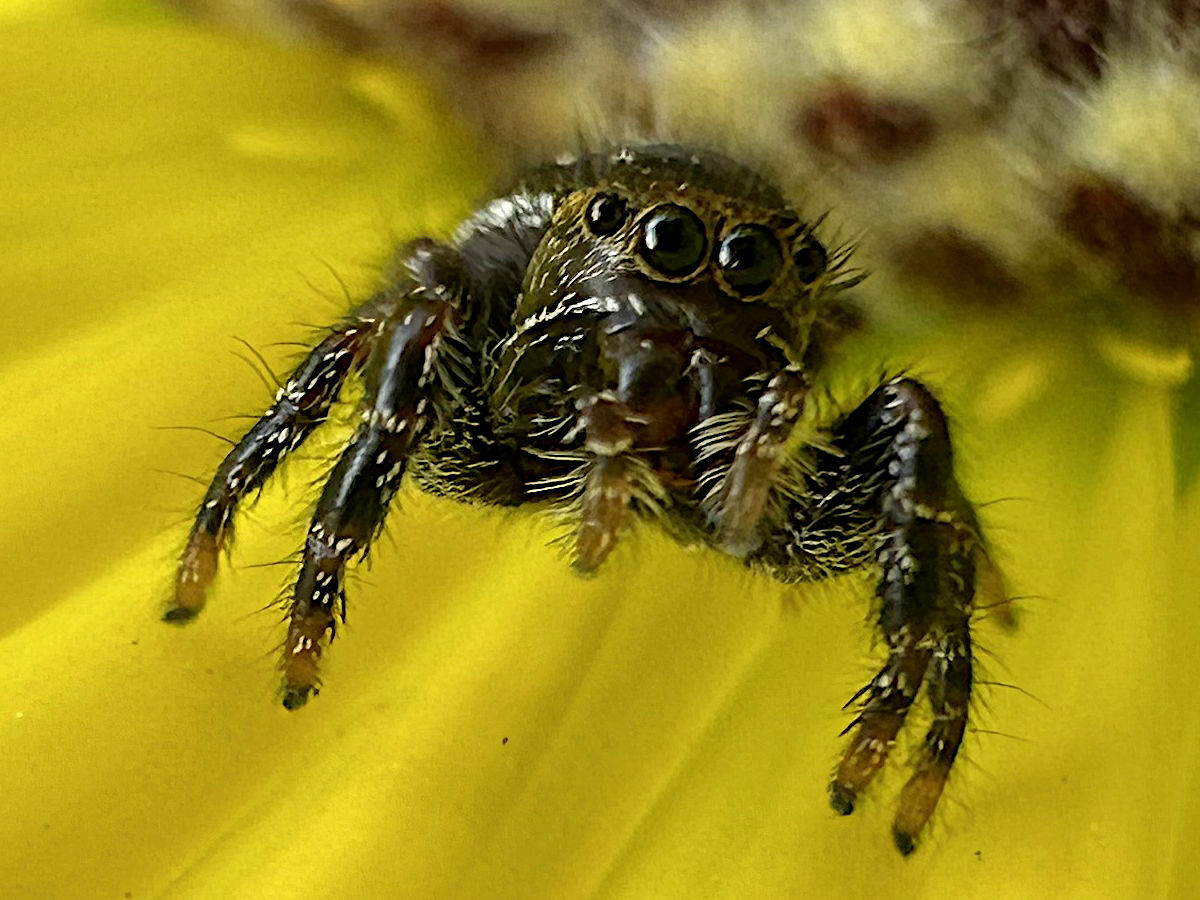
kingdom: Animalia
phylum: Arthropoda
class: Arachnida
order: Araneae
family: Salticidae
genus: Phidippus
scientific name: Phidippus audax
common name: Bold jumper
